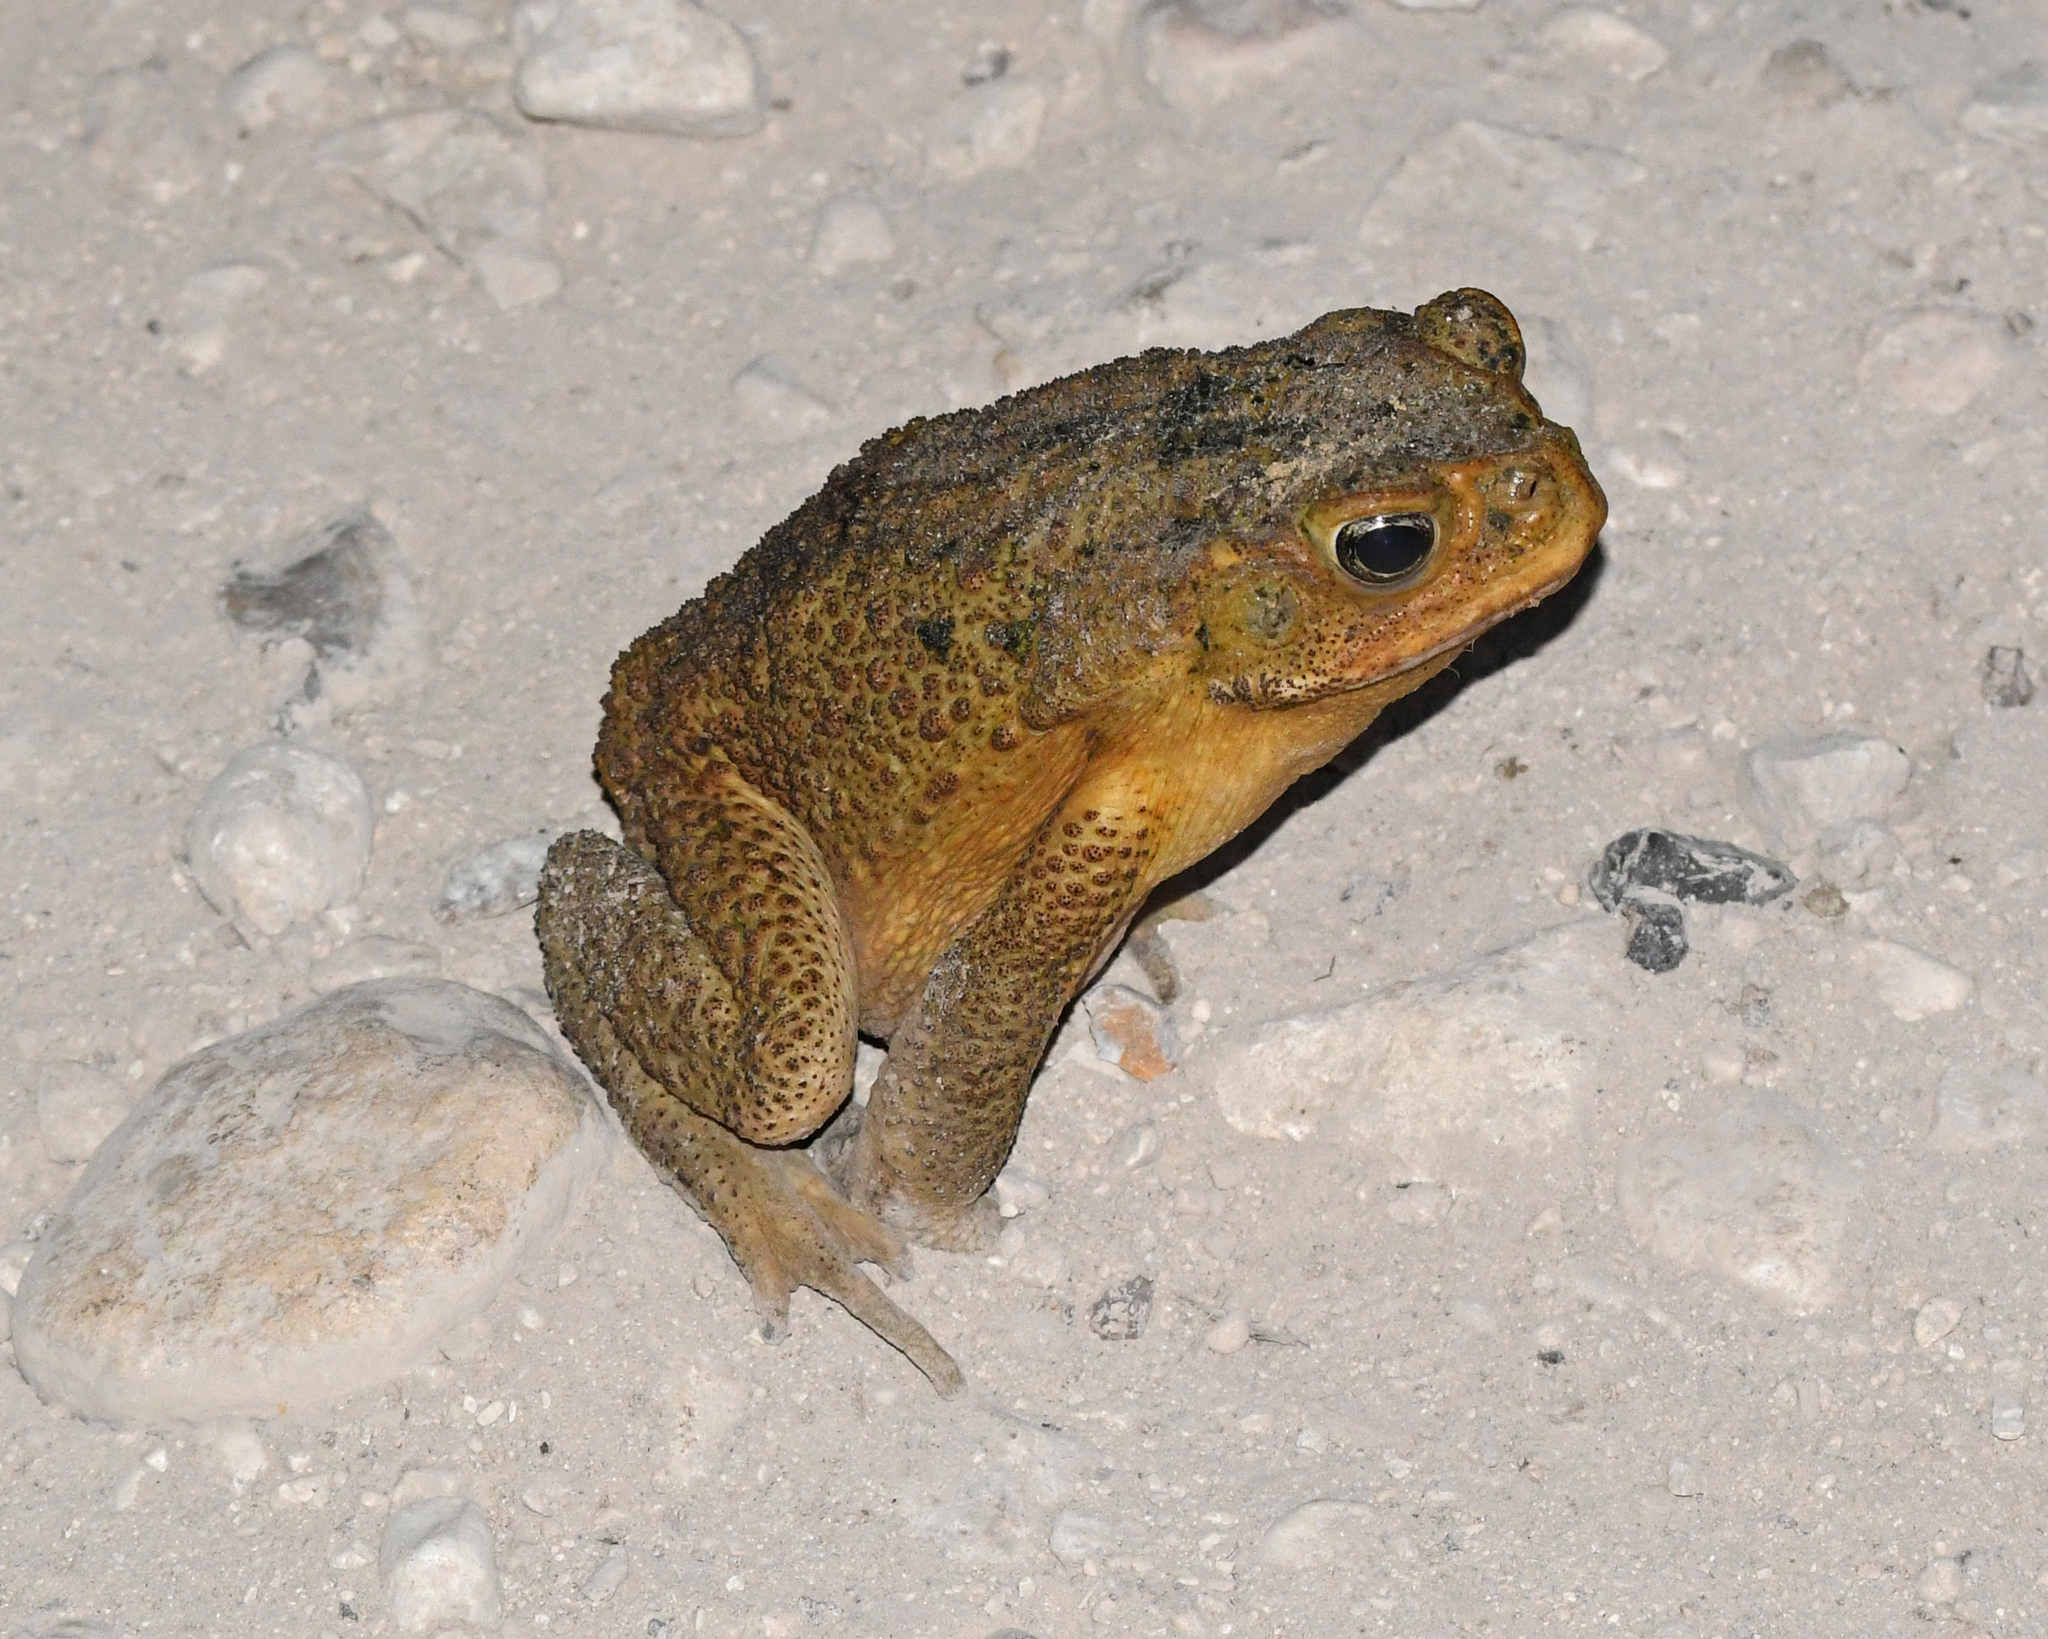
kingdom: Animalia
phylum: Chordata
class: Amphibia
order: Anura
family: Bufonidae
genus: Rhinella
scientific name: Rhinella marina
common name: Cane toad
